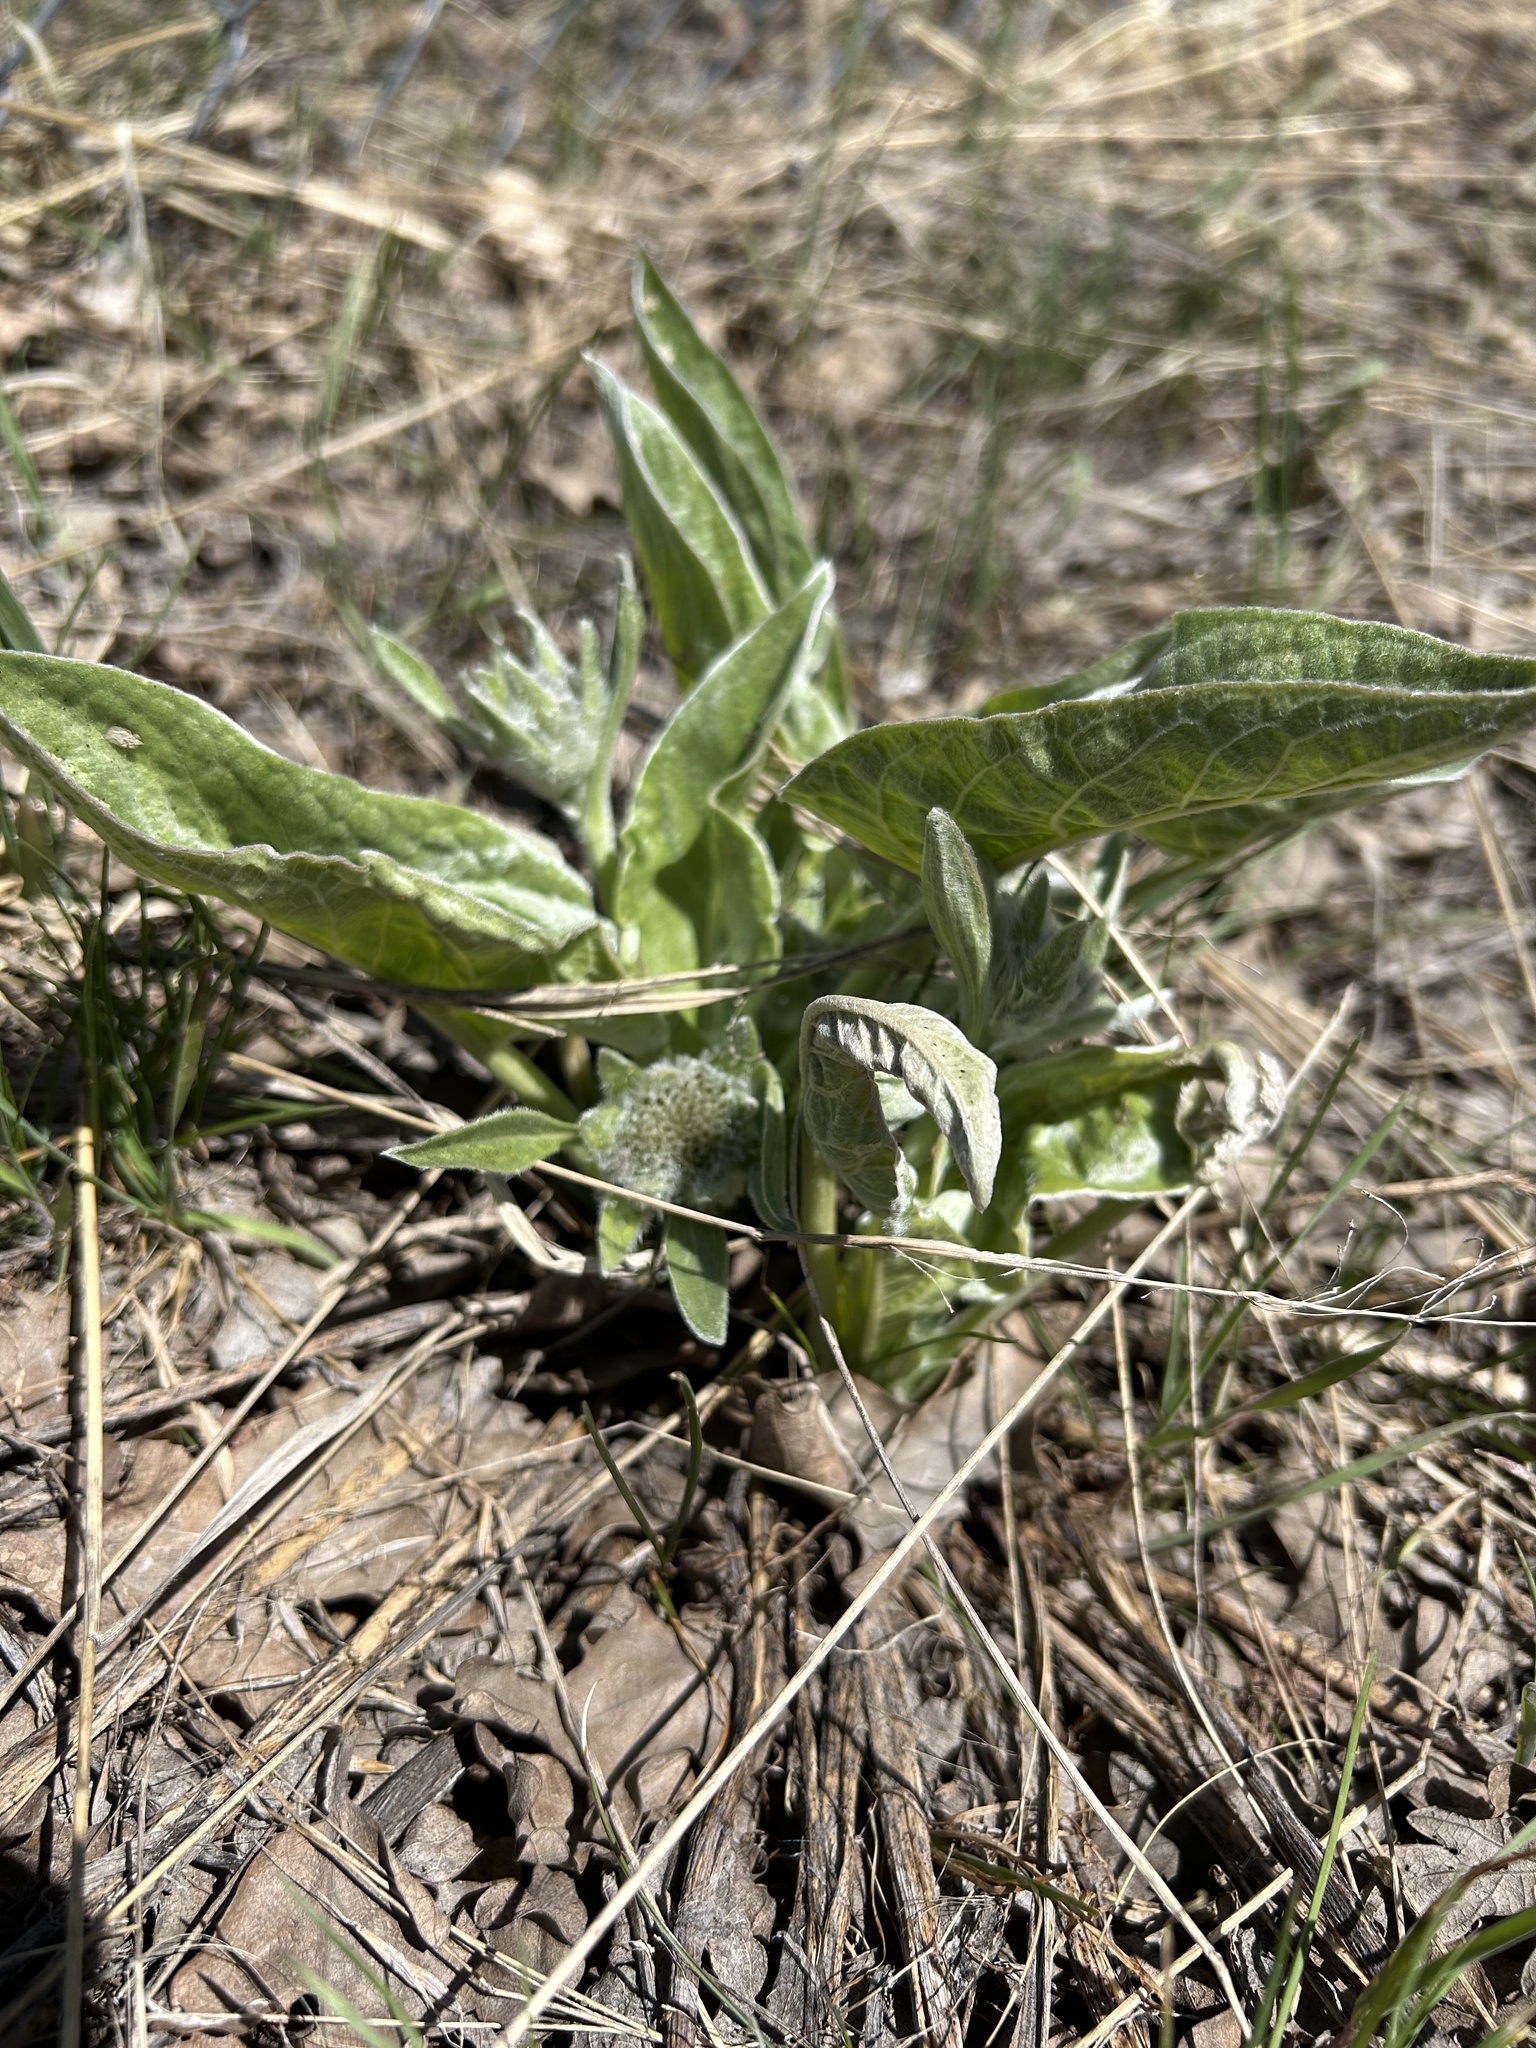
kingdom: Plantae
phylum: Tracheophyta
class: Magnoliopsida
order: Asterales
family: Asteraceae
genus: Wyethia
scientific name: Wyethia sagittata
